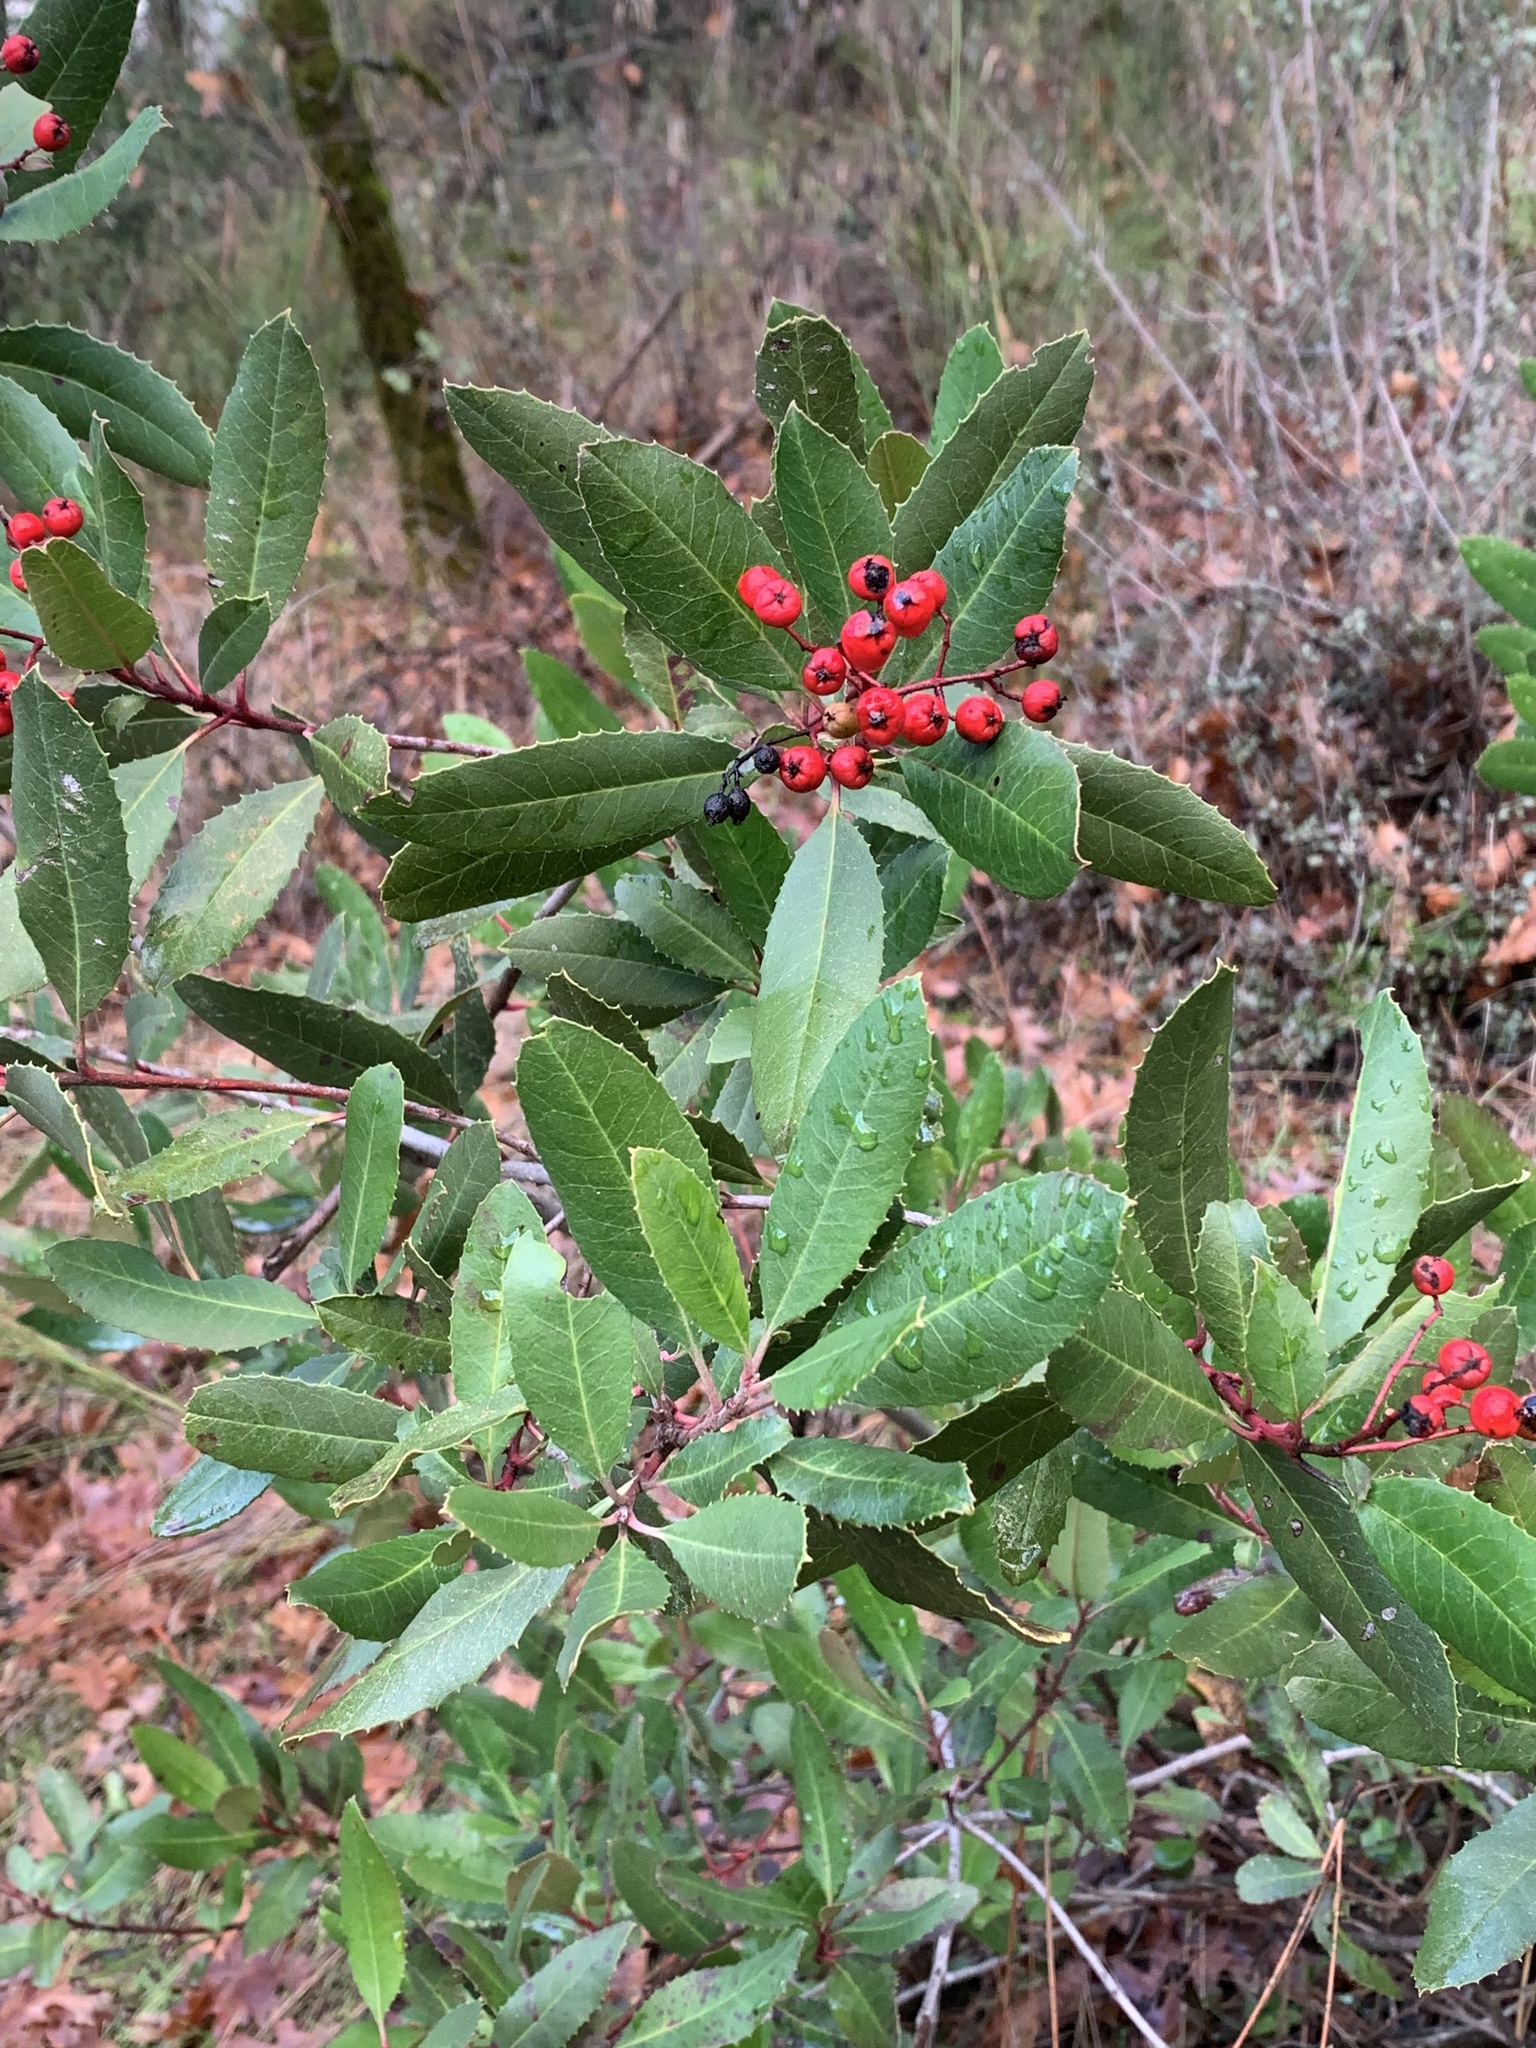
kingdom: Plantae
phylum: Tracheophyta
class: Magnoliopsida
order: Rosales
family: Rosaceae
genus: Heteromeles
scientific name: Heteromeles arbutifolia
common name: California-holly
